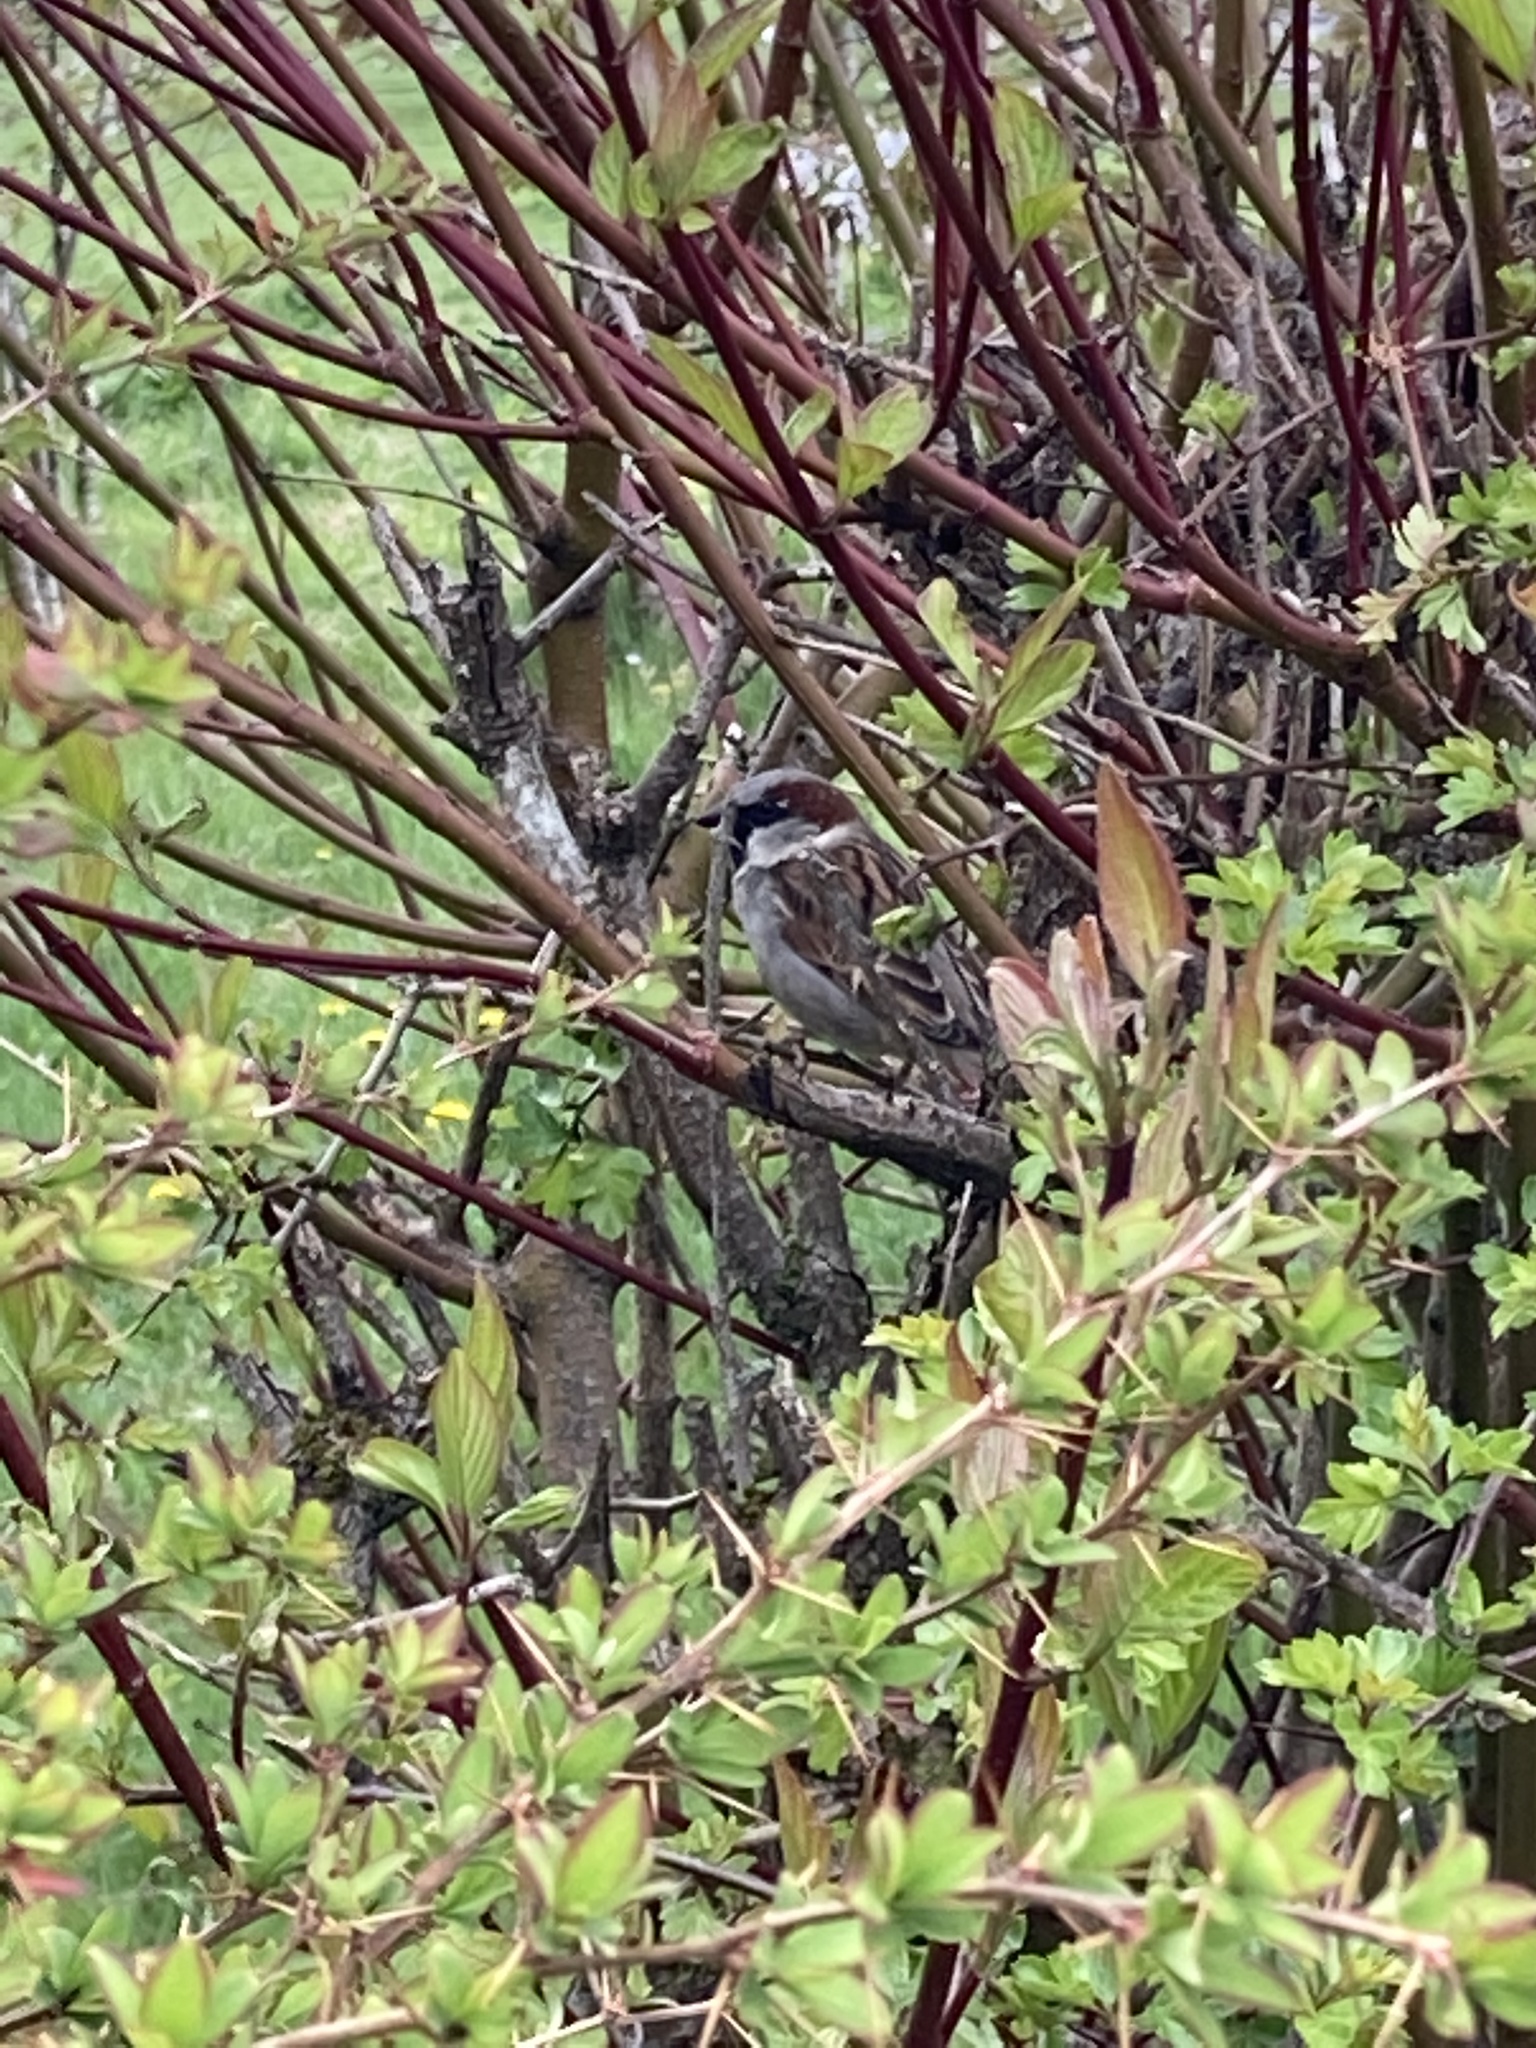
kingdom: Animalia
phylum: Chordata
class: Aves
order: Passeriformes
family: Passeridae
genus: Passer
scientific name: Passer domesticus
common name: House sparrow
